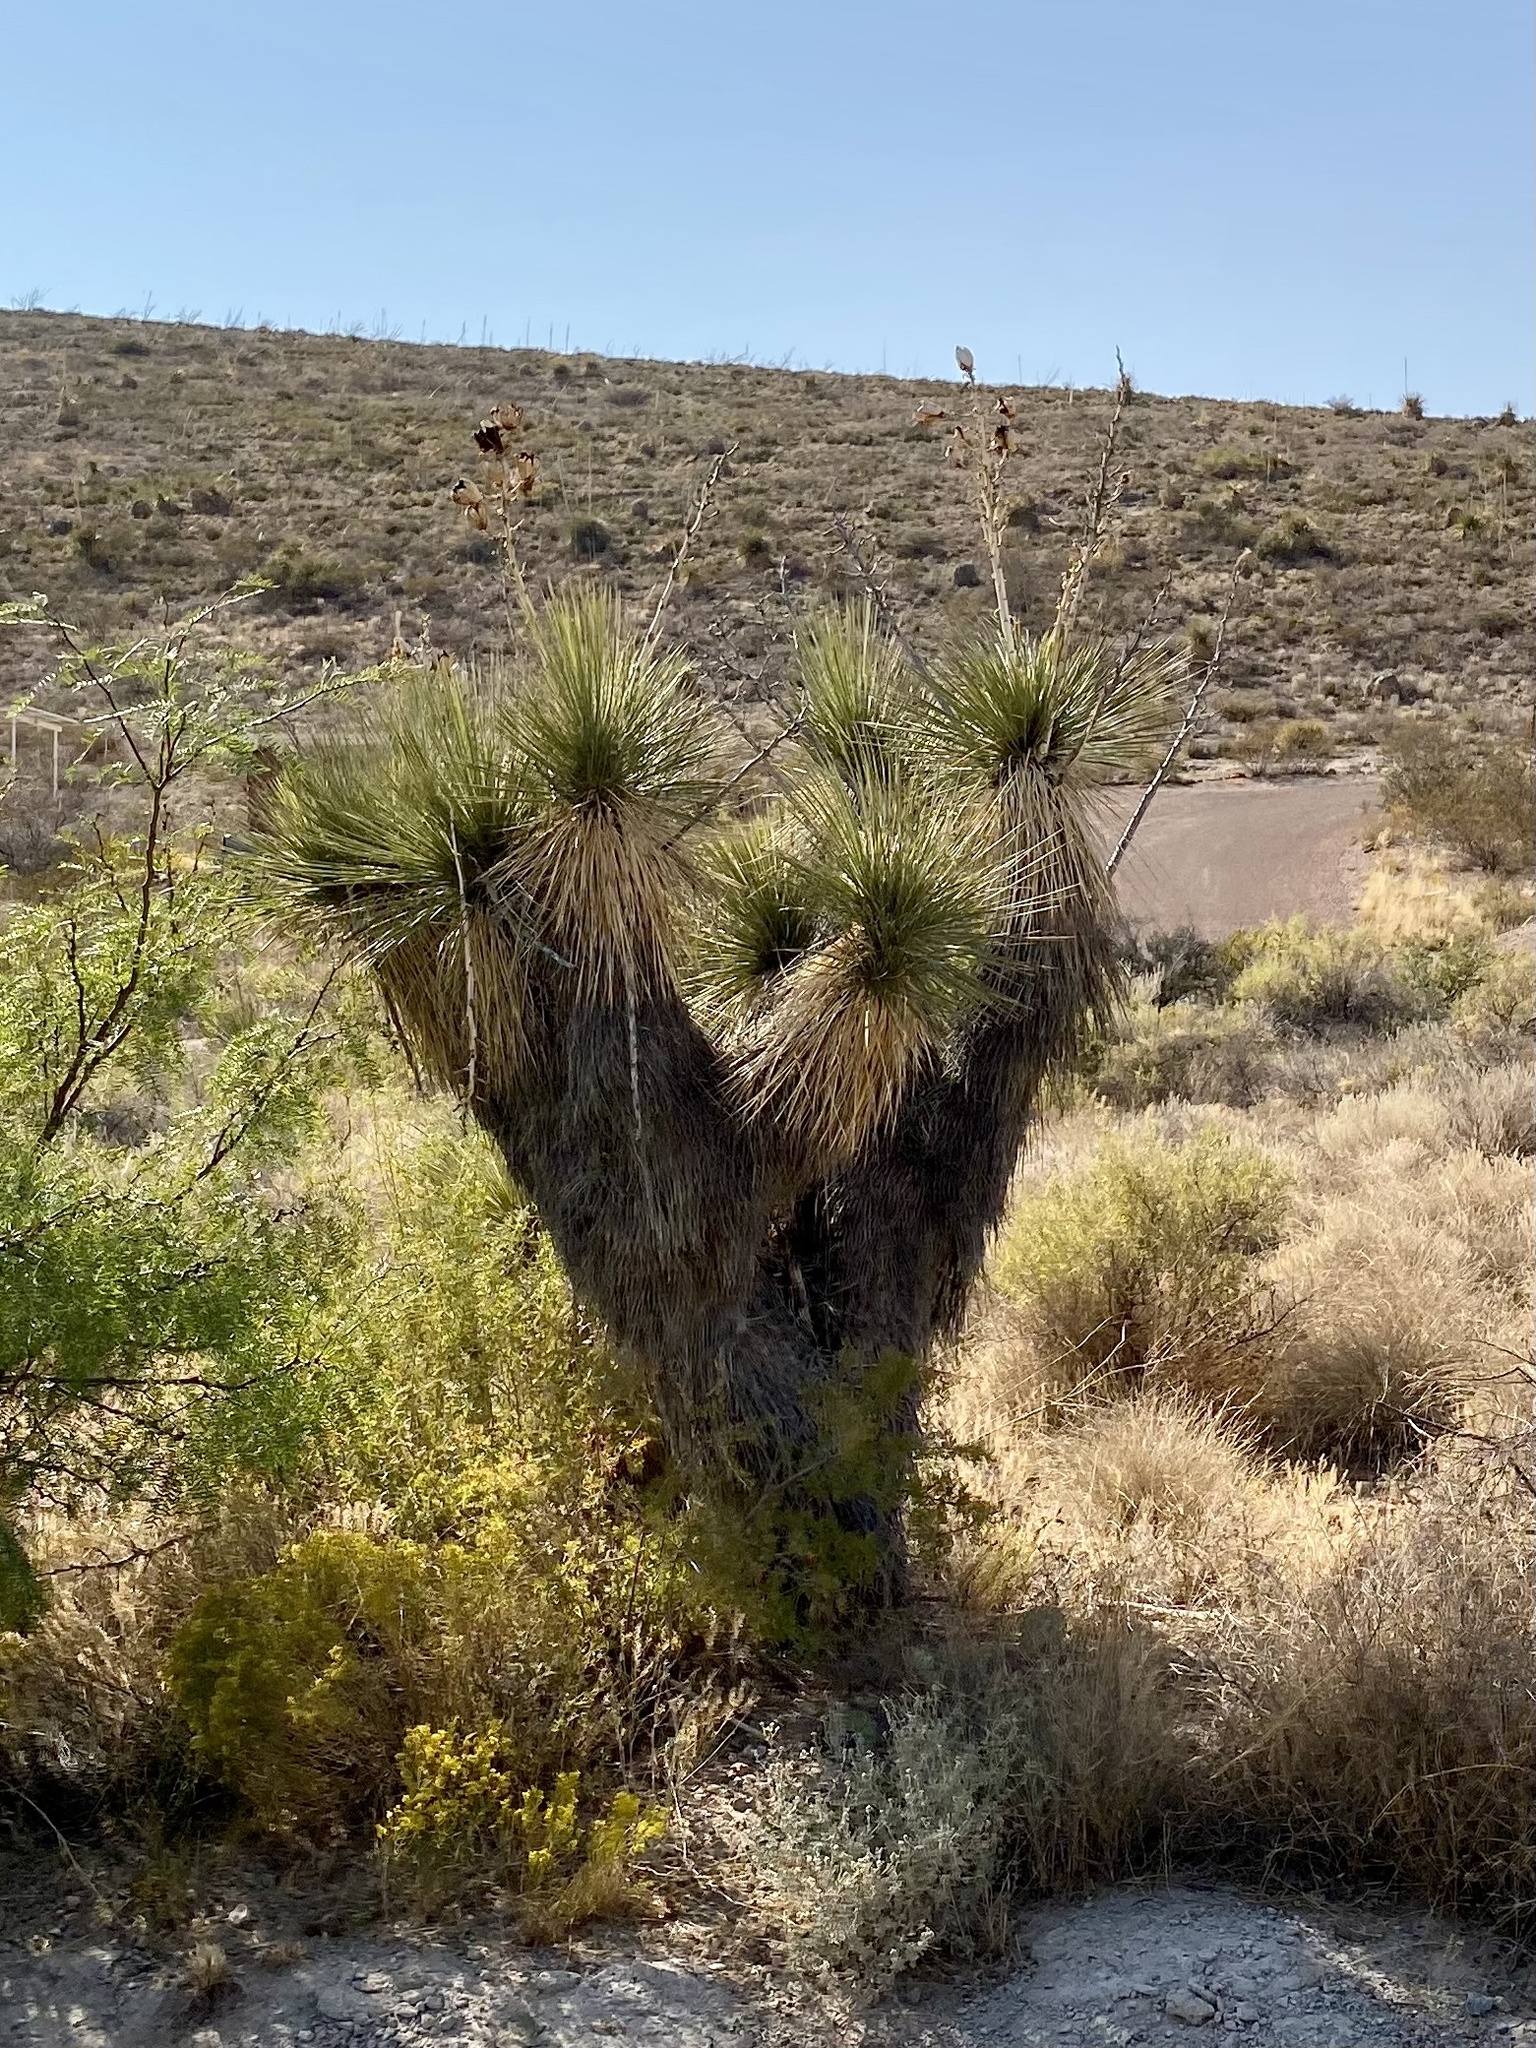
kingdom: Plantae
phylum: Tracheophyta
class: Liliopsida
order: Asparagales
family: Asparagaceae
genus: Yucca
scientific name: Yucca elata
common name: Palmella
